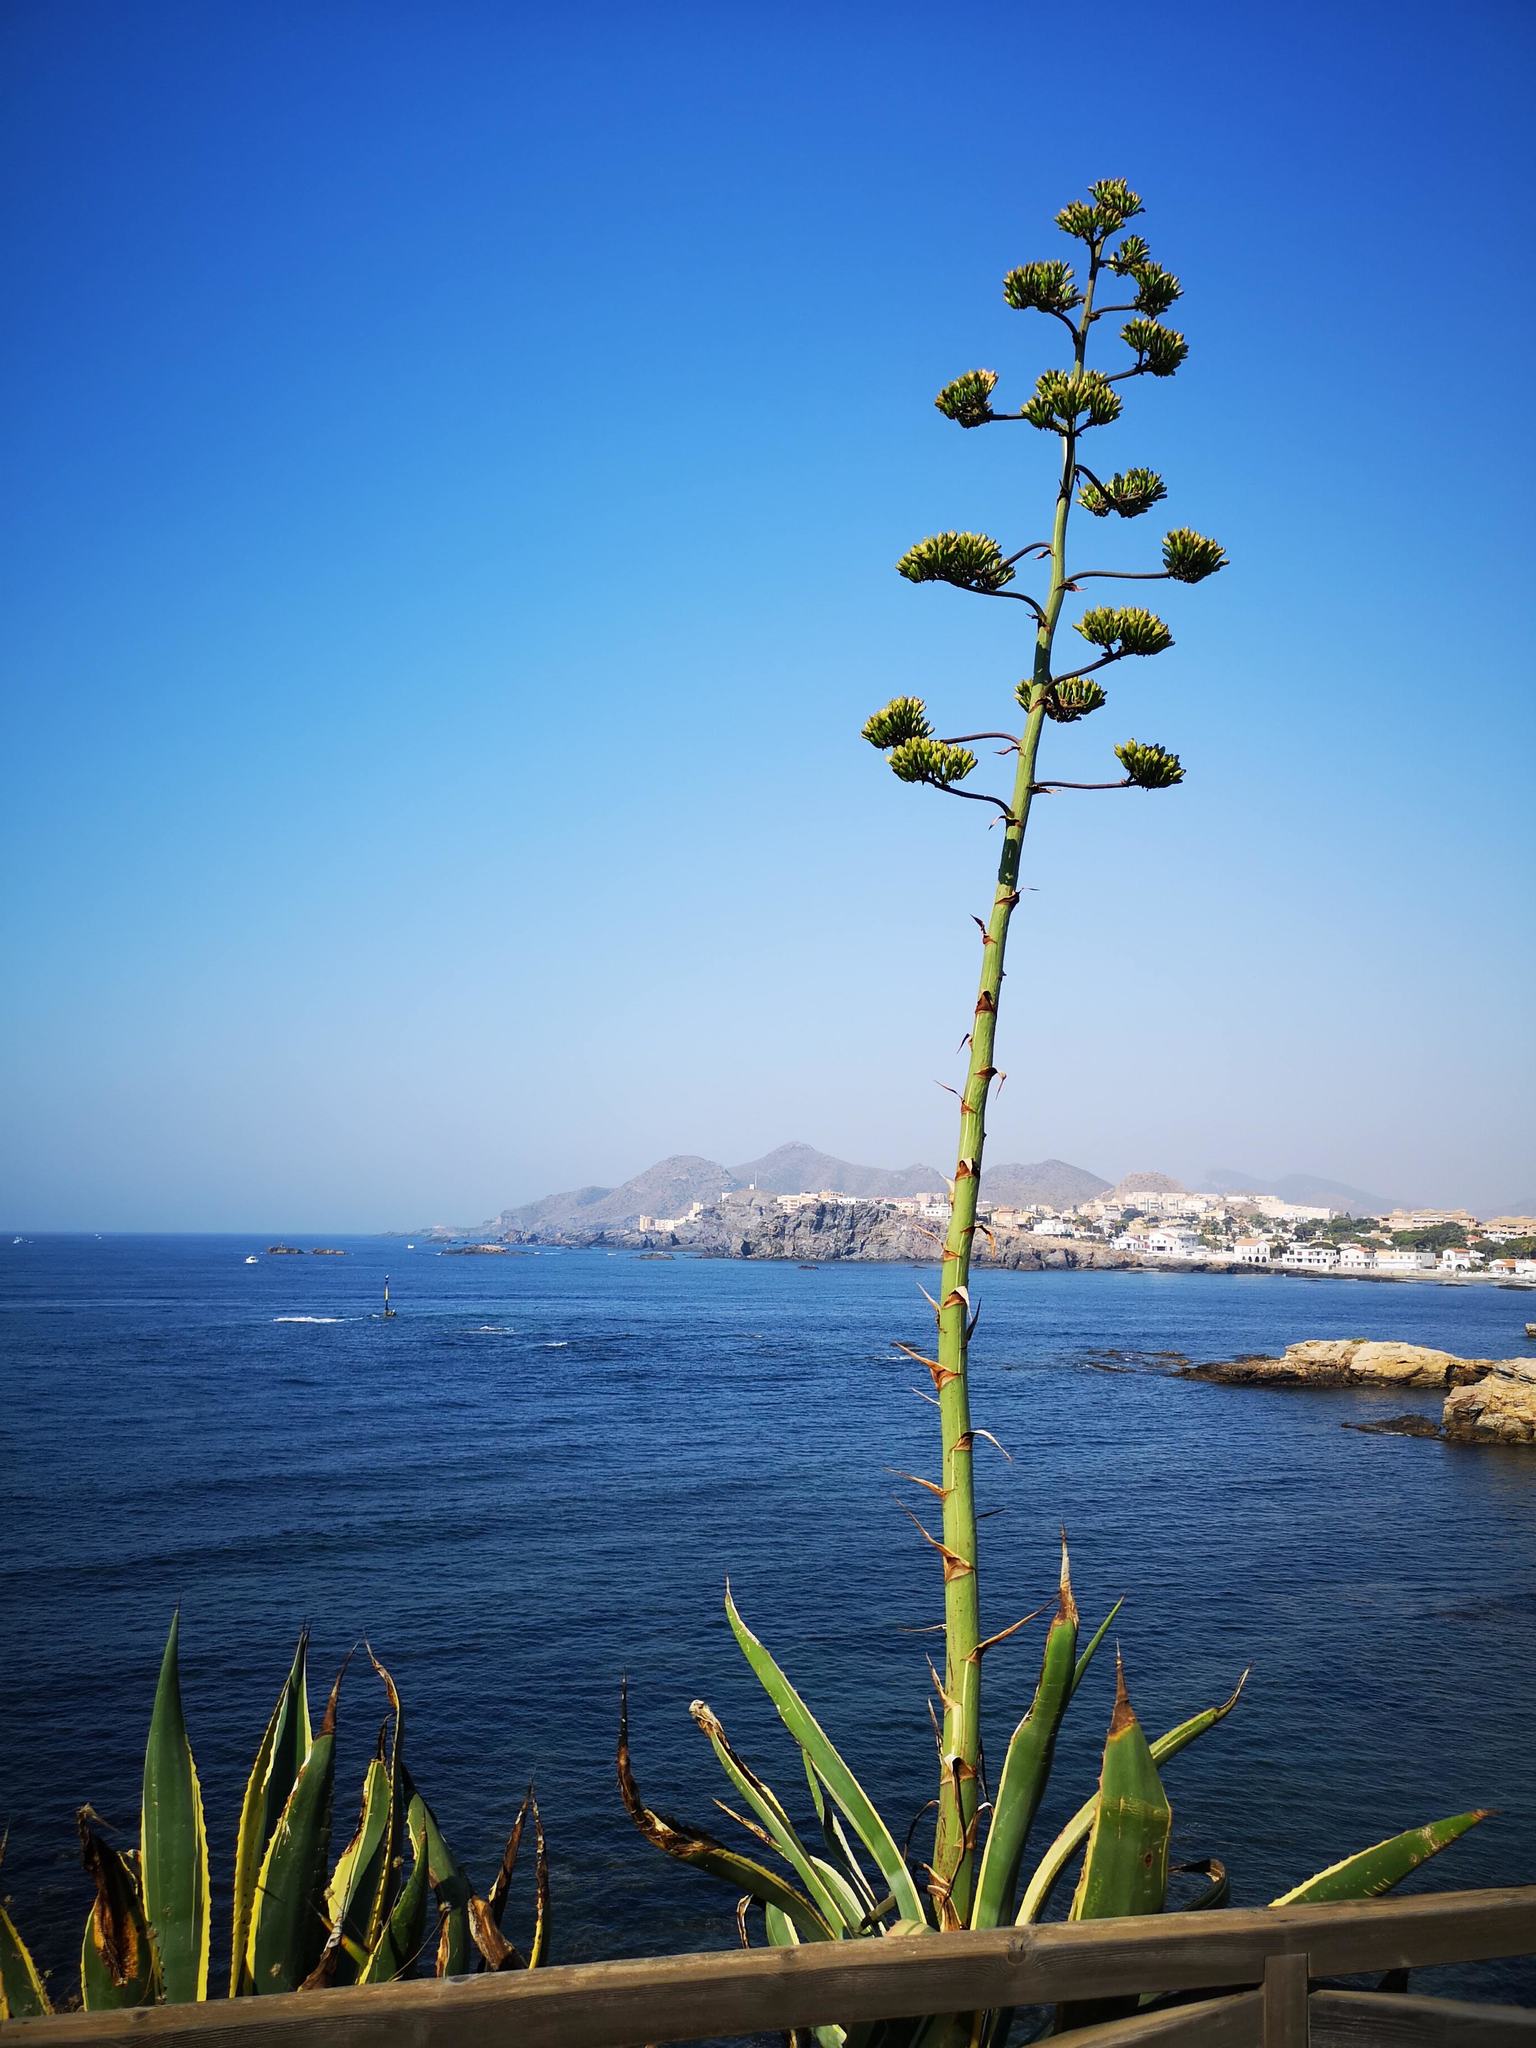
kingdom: Plantae
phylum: Tracheophyta
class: Liliopsida
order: Asparagales
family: Asparagaceae
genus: Agave
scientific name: Agave americana
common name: Centuryplant
